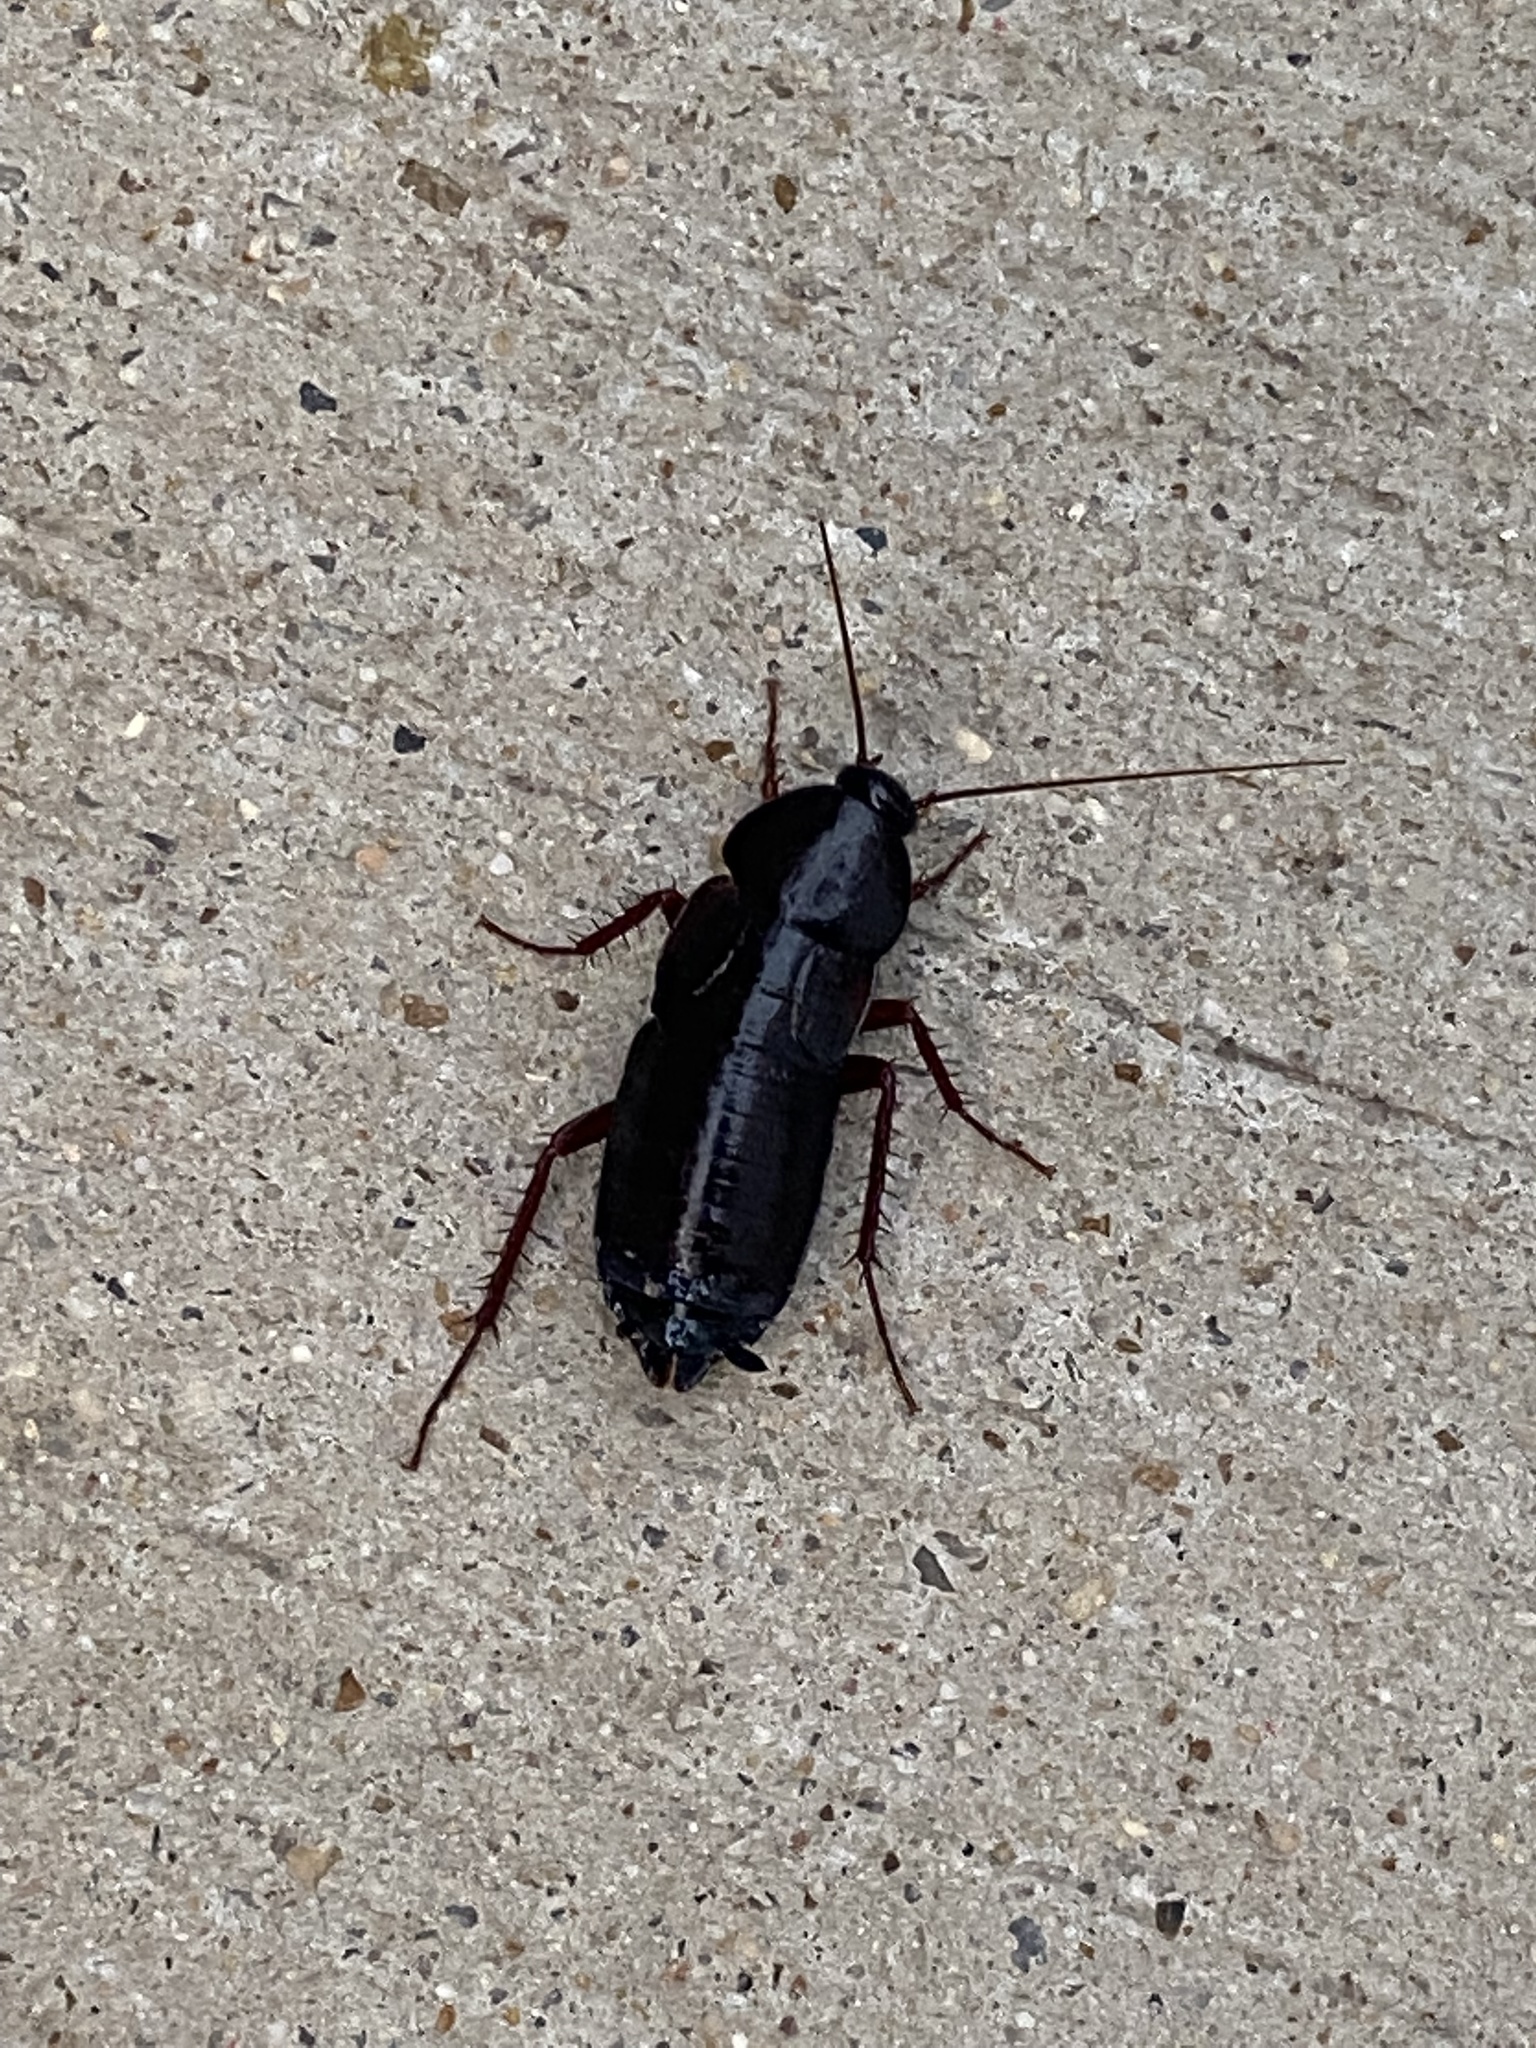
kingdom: Animalia
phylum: Arthropoda
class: Insecta
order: Blattodea
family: Blattidae
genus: Blatta
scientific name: Blatta orientalis
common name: Oriental cockroach
